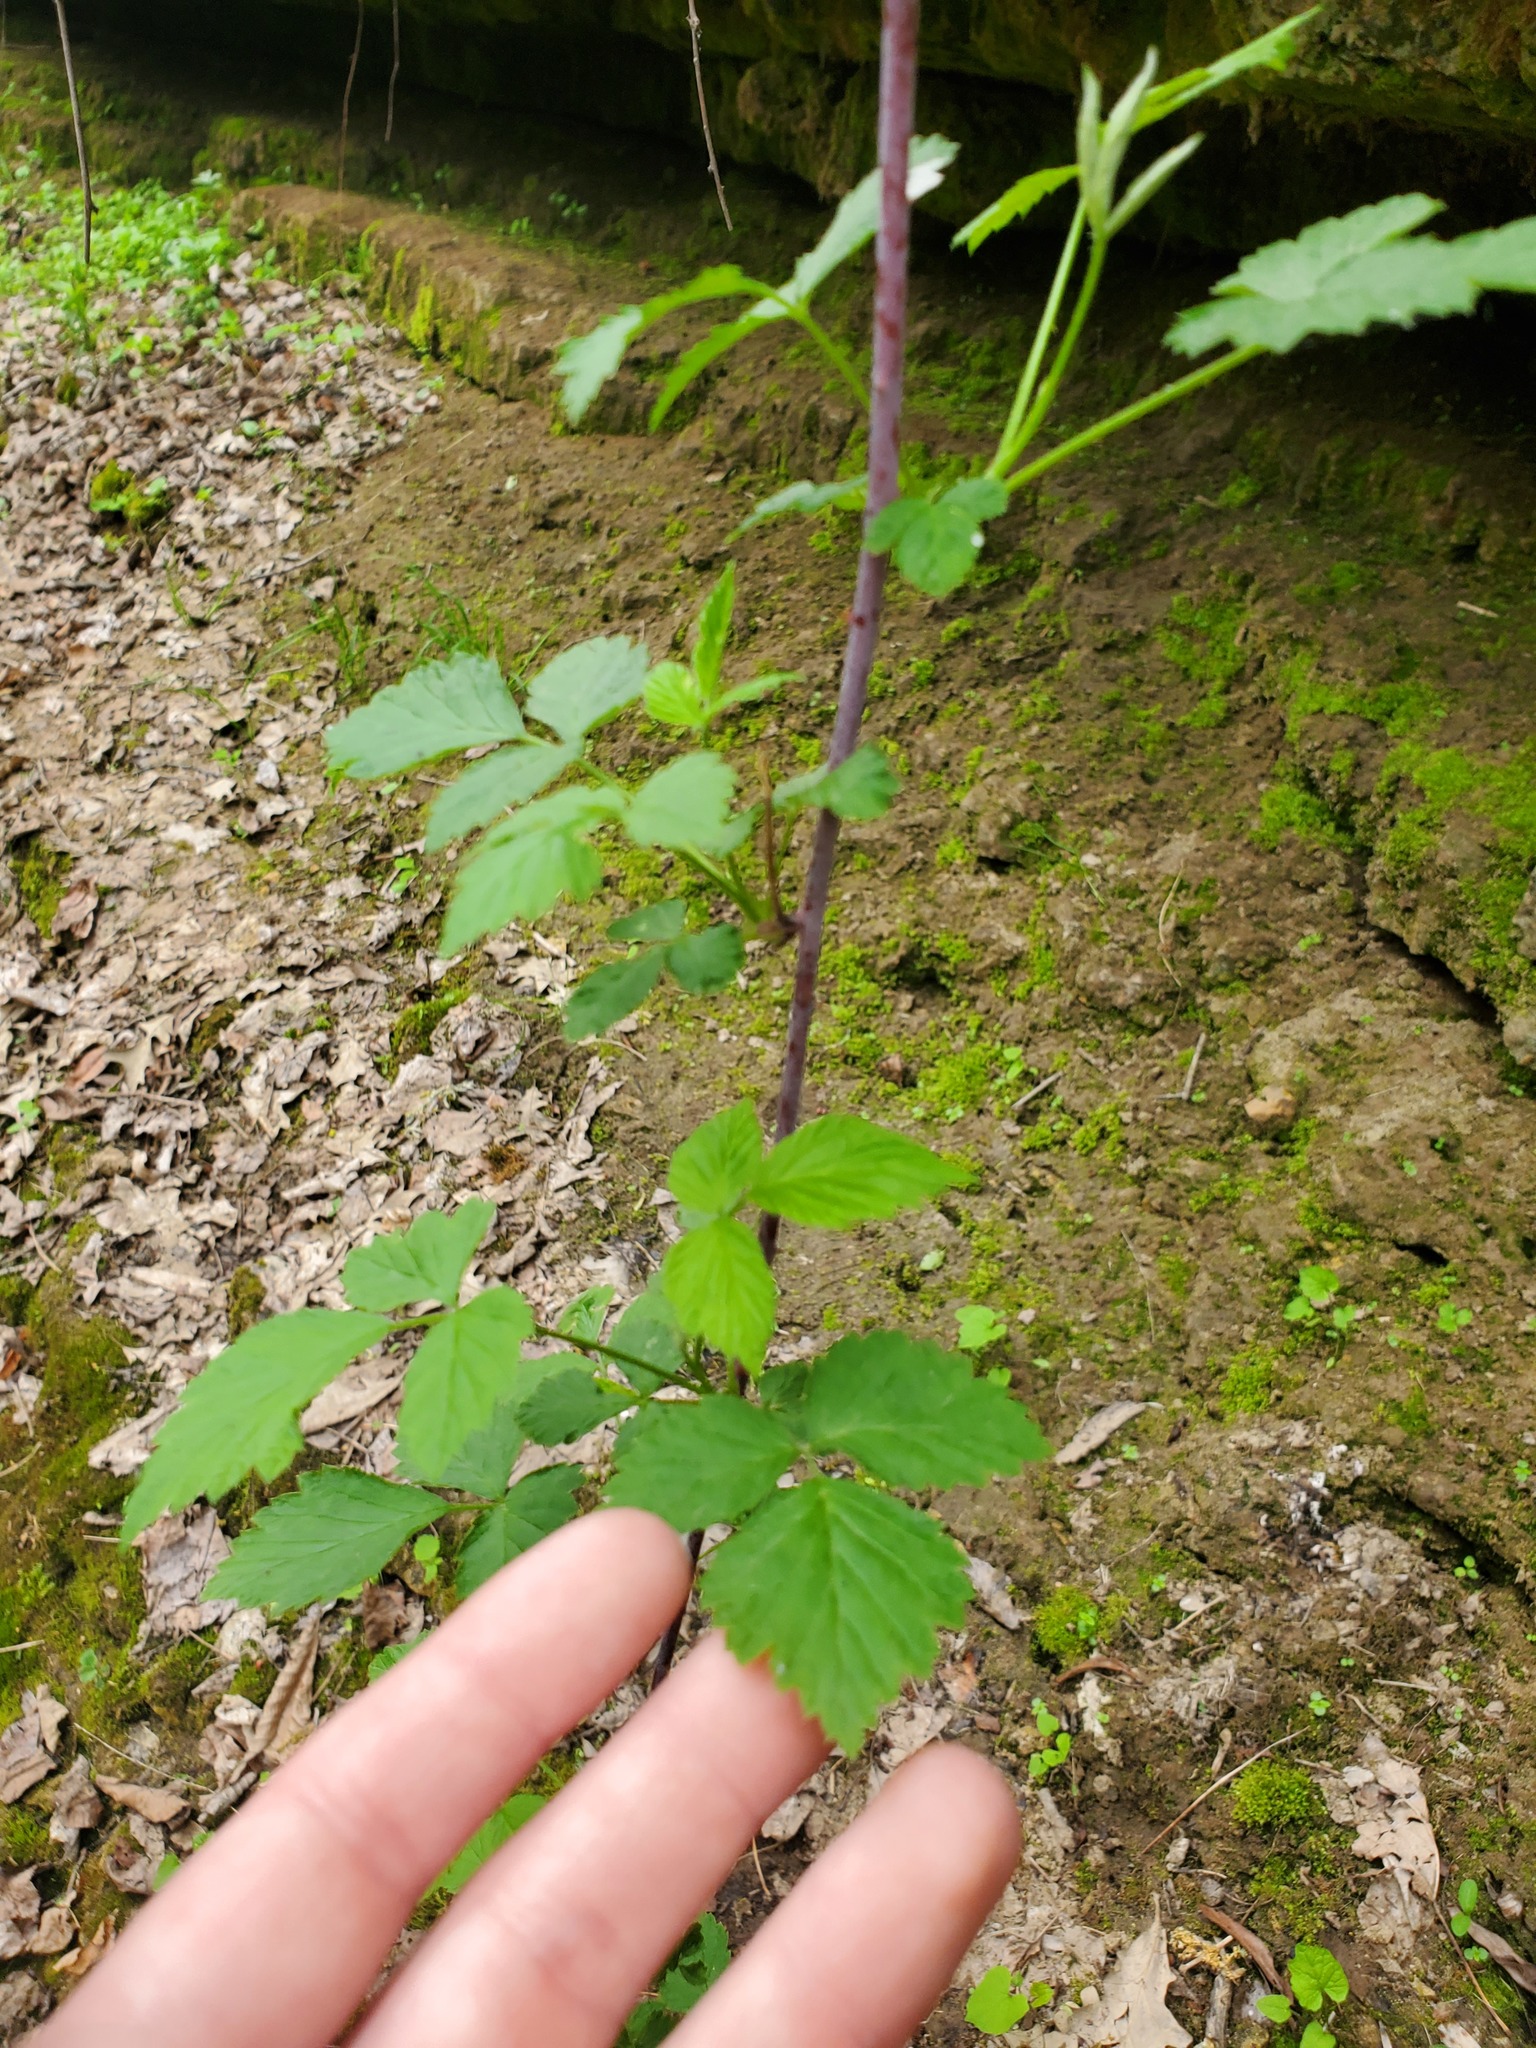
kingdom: Plantae
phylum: Tracheophyta
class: Magnoliopsida
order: Rosales
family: Rosaceae
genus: Rubus
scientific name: Rubus occidentalis
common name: Black raspberry
